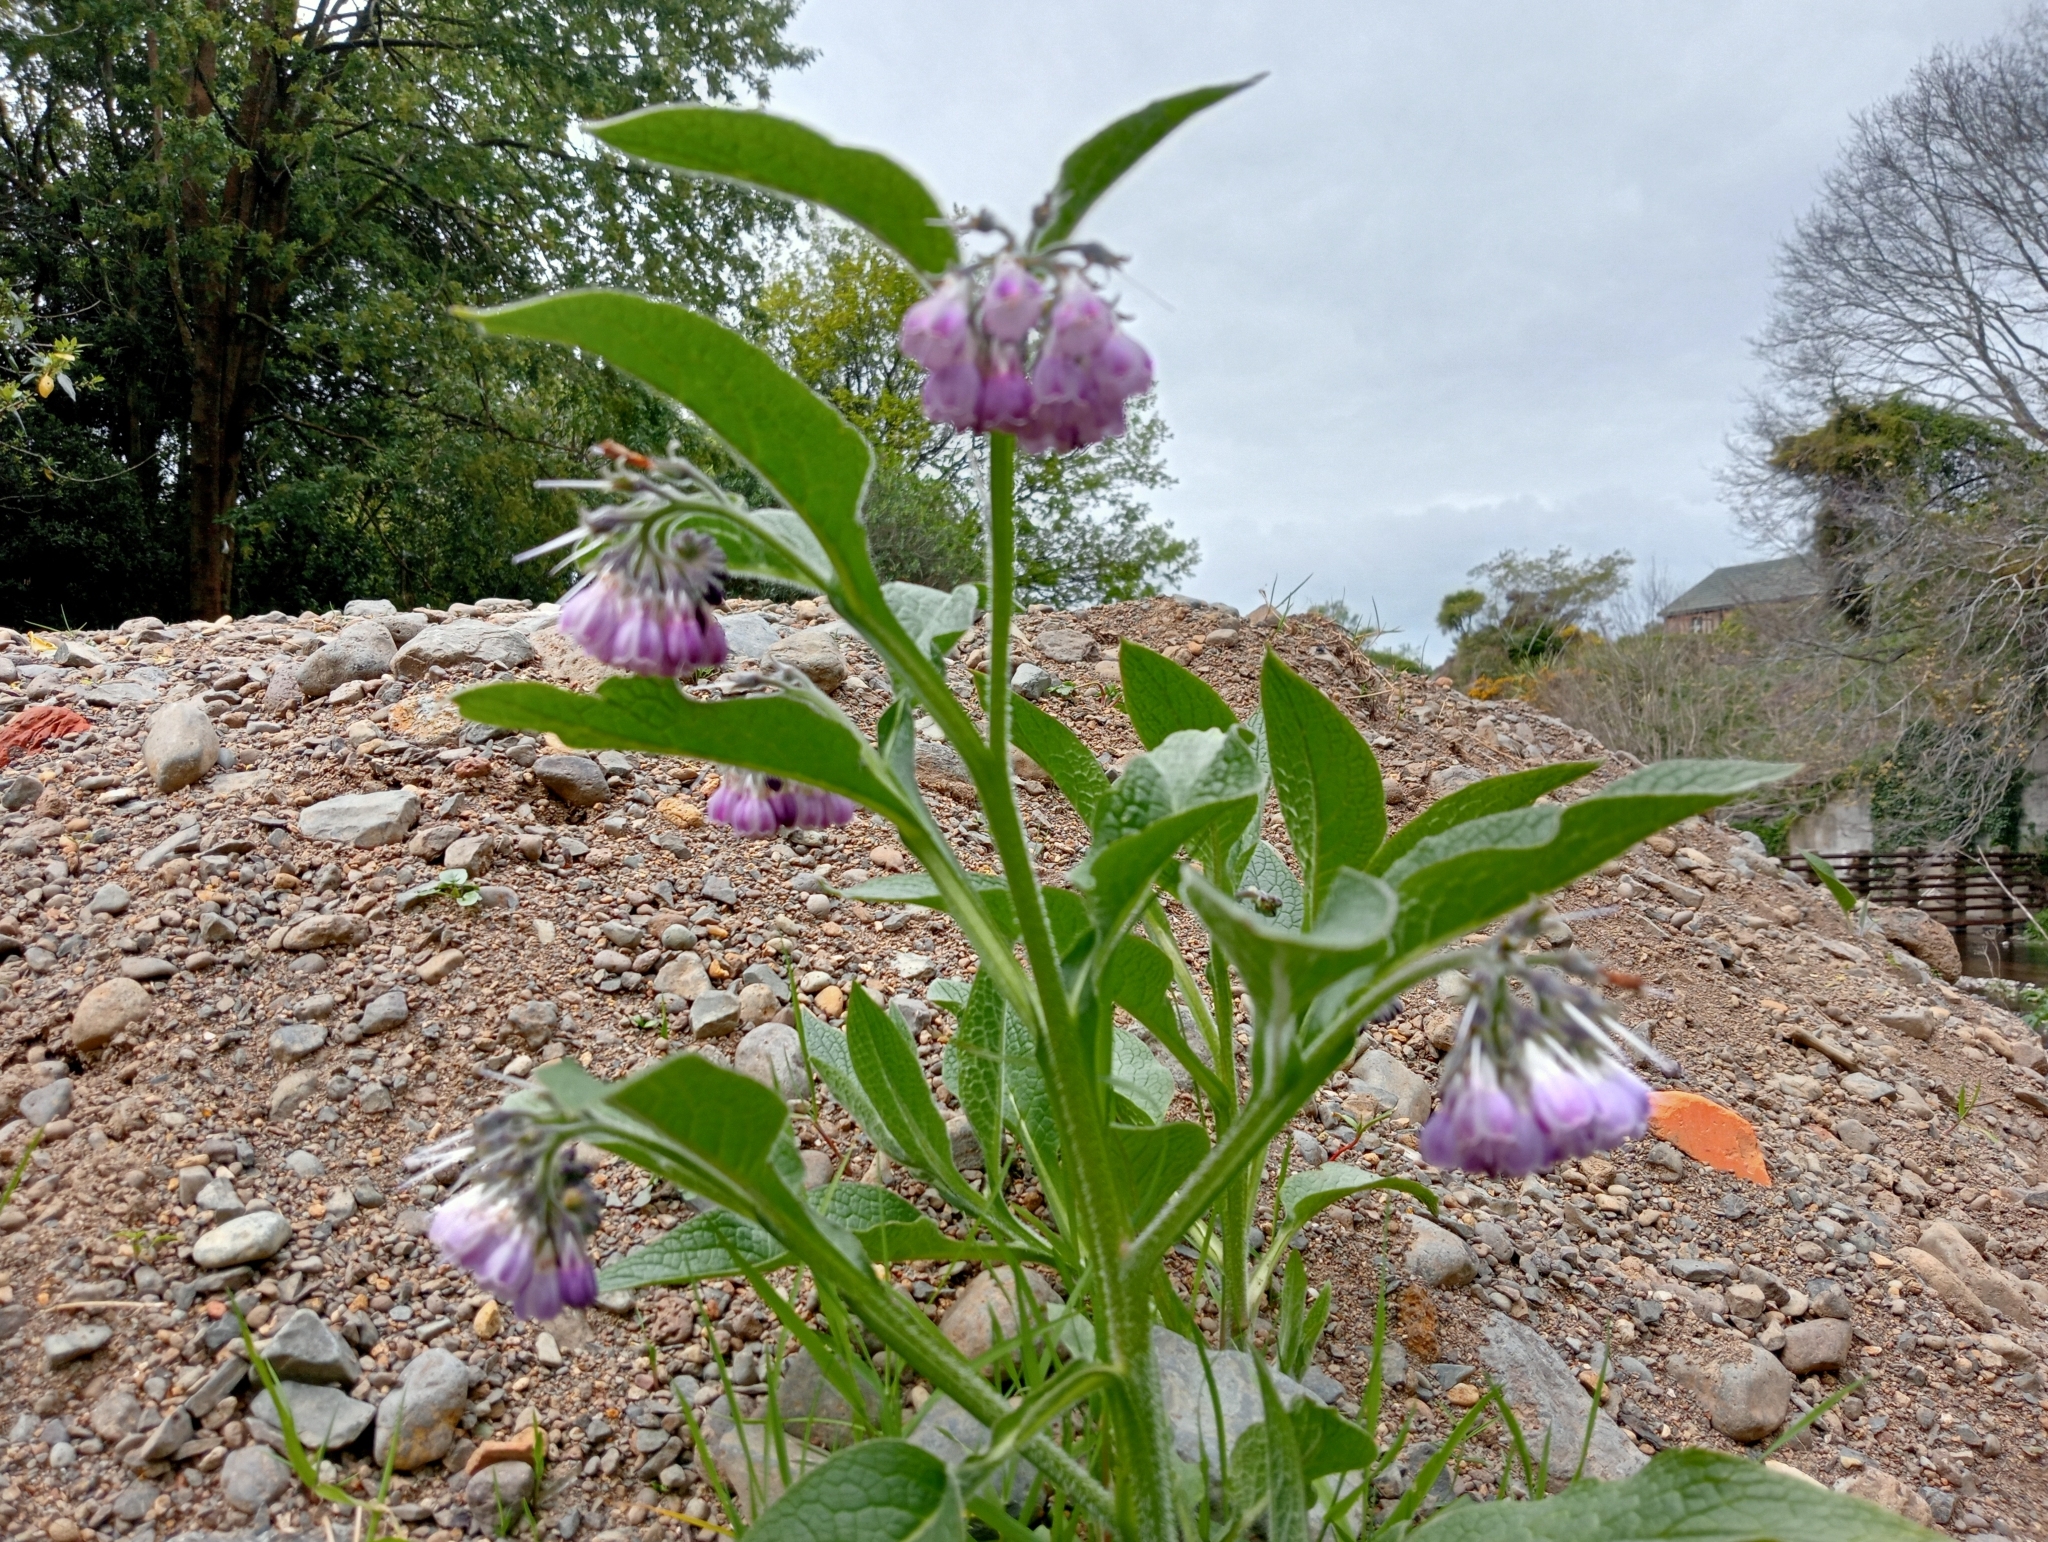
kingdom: Plantae
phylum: Tracheophyta
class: Magnoliopsida
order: Boraginales
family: Boraginaceae
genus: Symphytum
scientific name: Symphytum officinale
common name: Common comfrey
